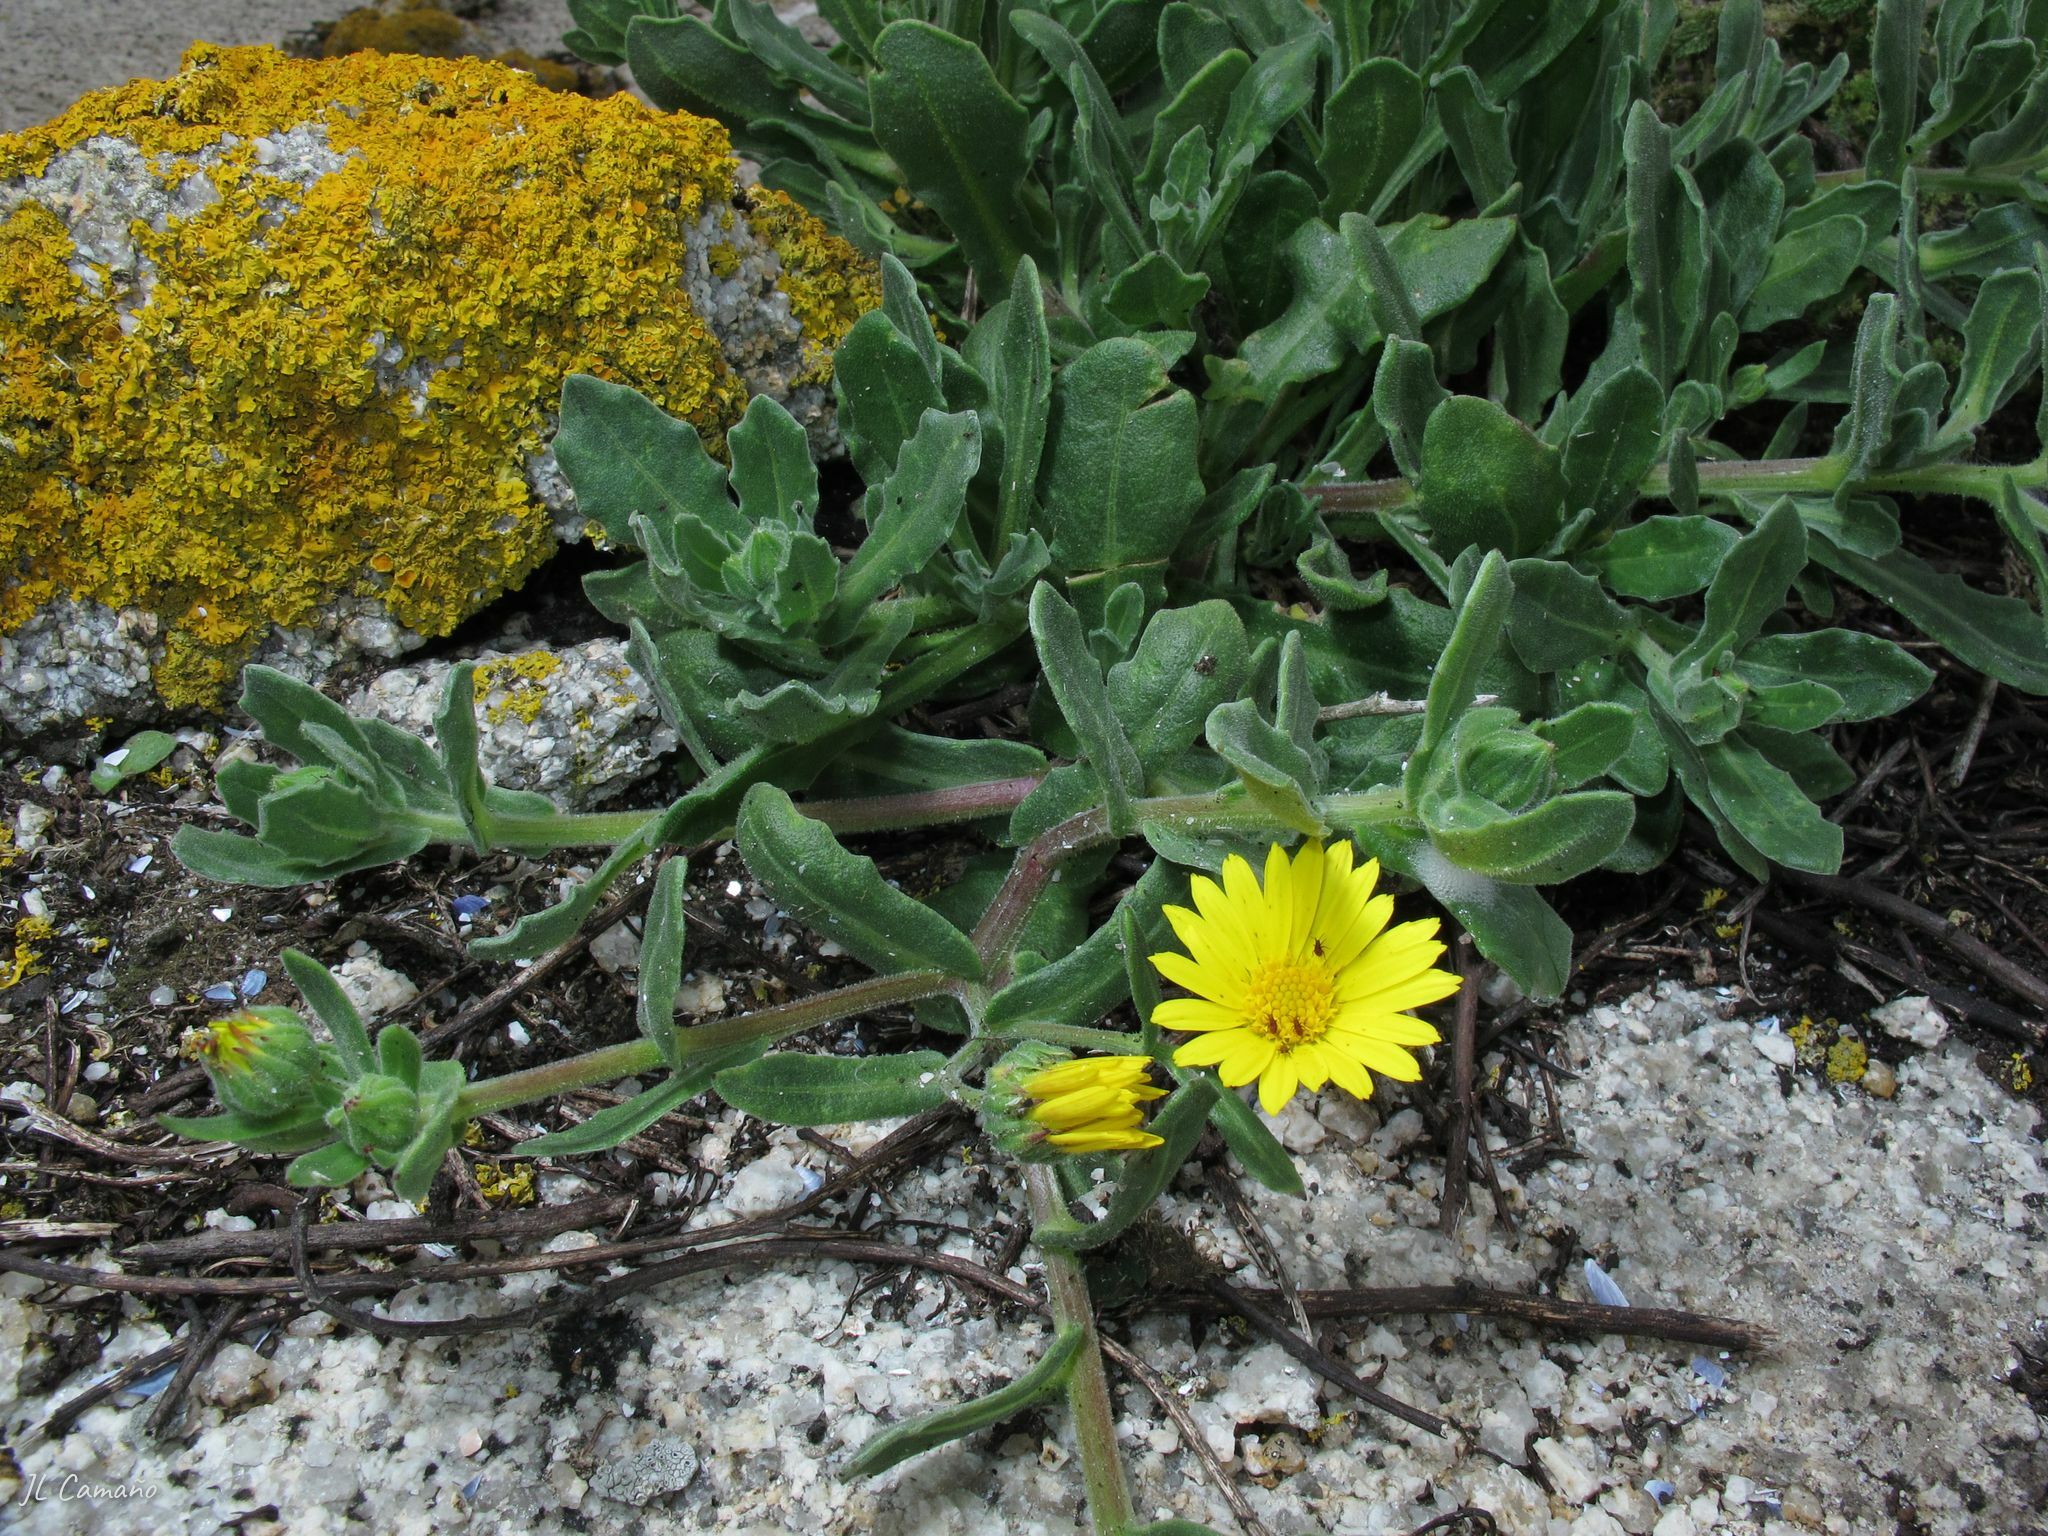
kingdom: Plantae
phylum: Tracheophyta
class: Magnoliopsida
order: Asterales
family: Asteraceae
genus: Calendula
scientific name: Calendula suffruticosa
